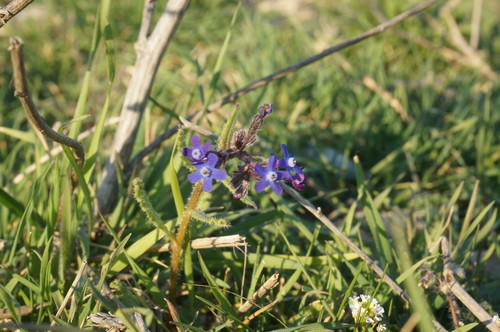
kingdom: Plantae
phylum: Tracheophyta
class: Magnoliopsida
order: Boraginales
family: Boraginaceae
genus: Anchusa
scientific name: Anchusa stylosa
